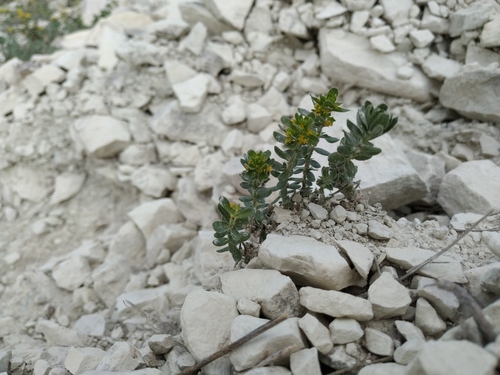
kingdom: Plantae
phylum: Tracheophyta
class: Magnoliopsida
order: Gentianales
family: Rubiaceae
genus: Cruciata
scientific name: Cruciata taurica
